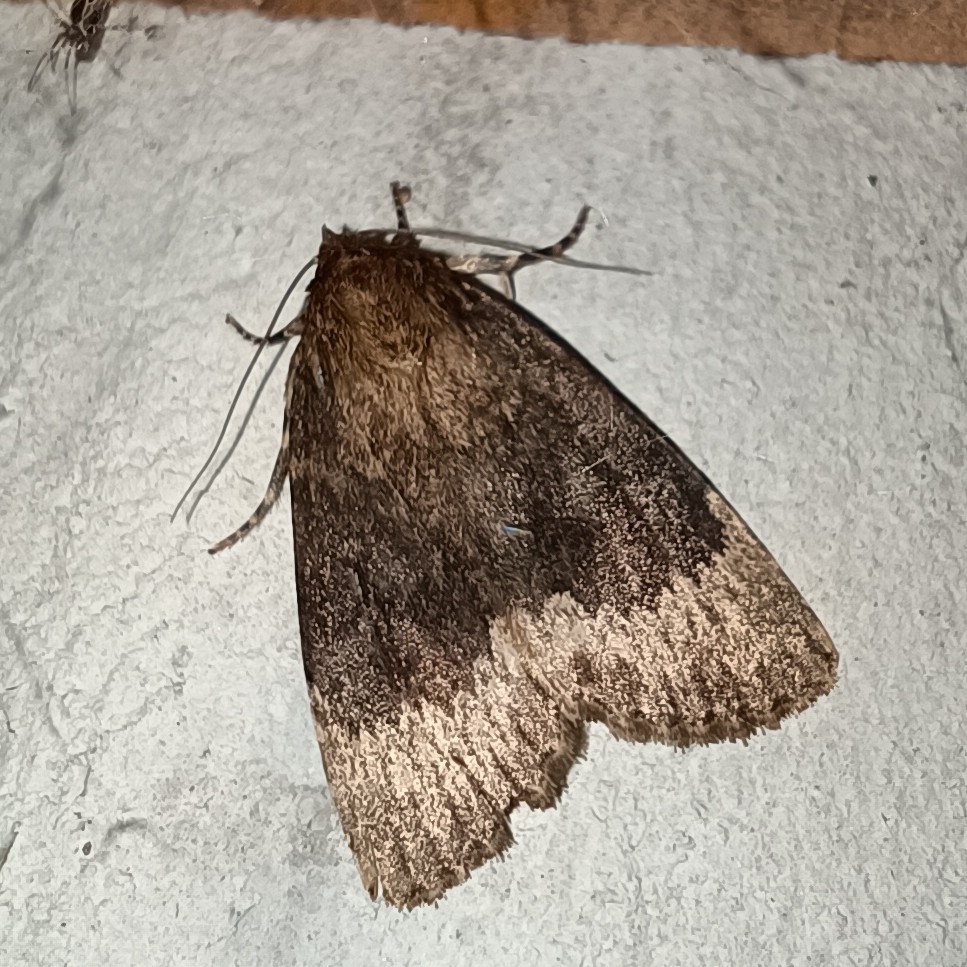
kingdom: Animalia
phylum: Arthropoda
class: Insecta
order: Lepidoptera
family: Noctuidae
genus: Amphipyra
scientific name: Amphipyra perflua
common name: Larger pale-tipped black moth
